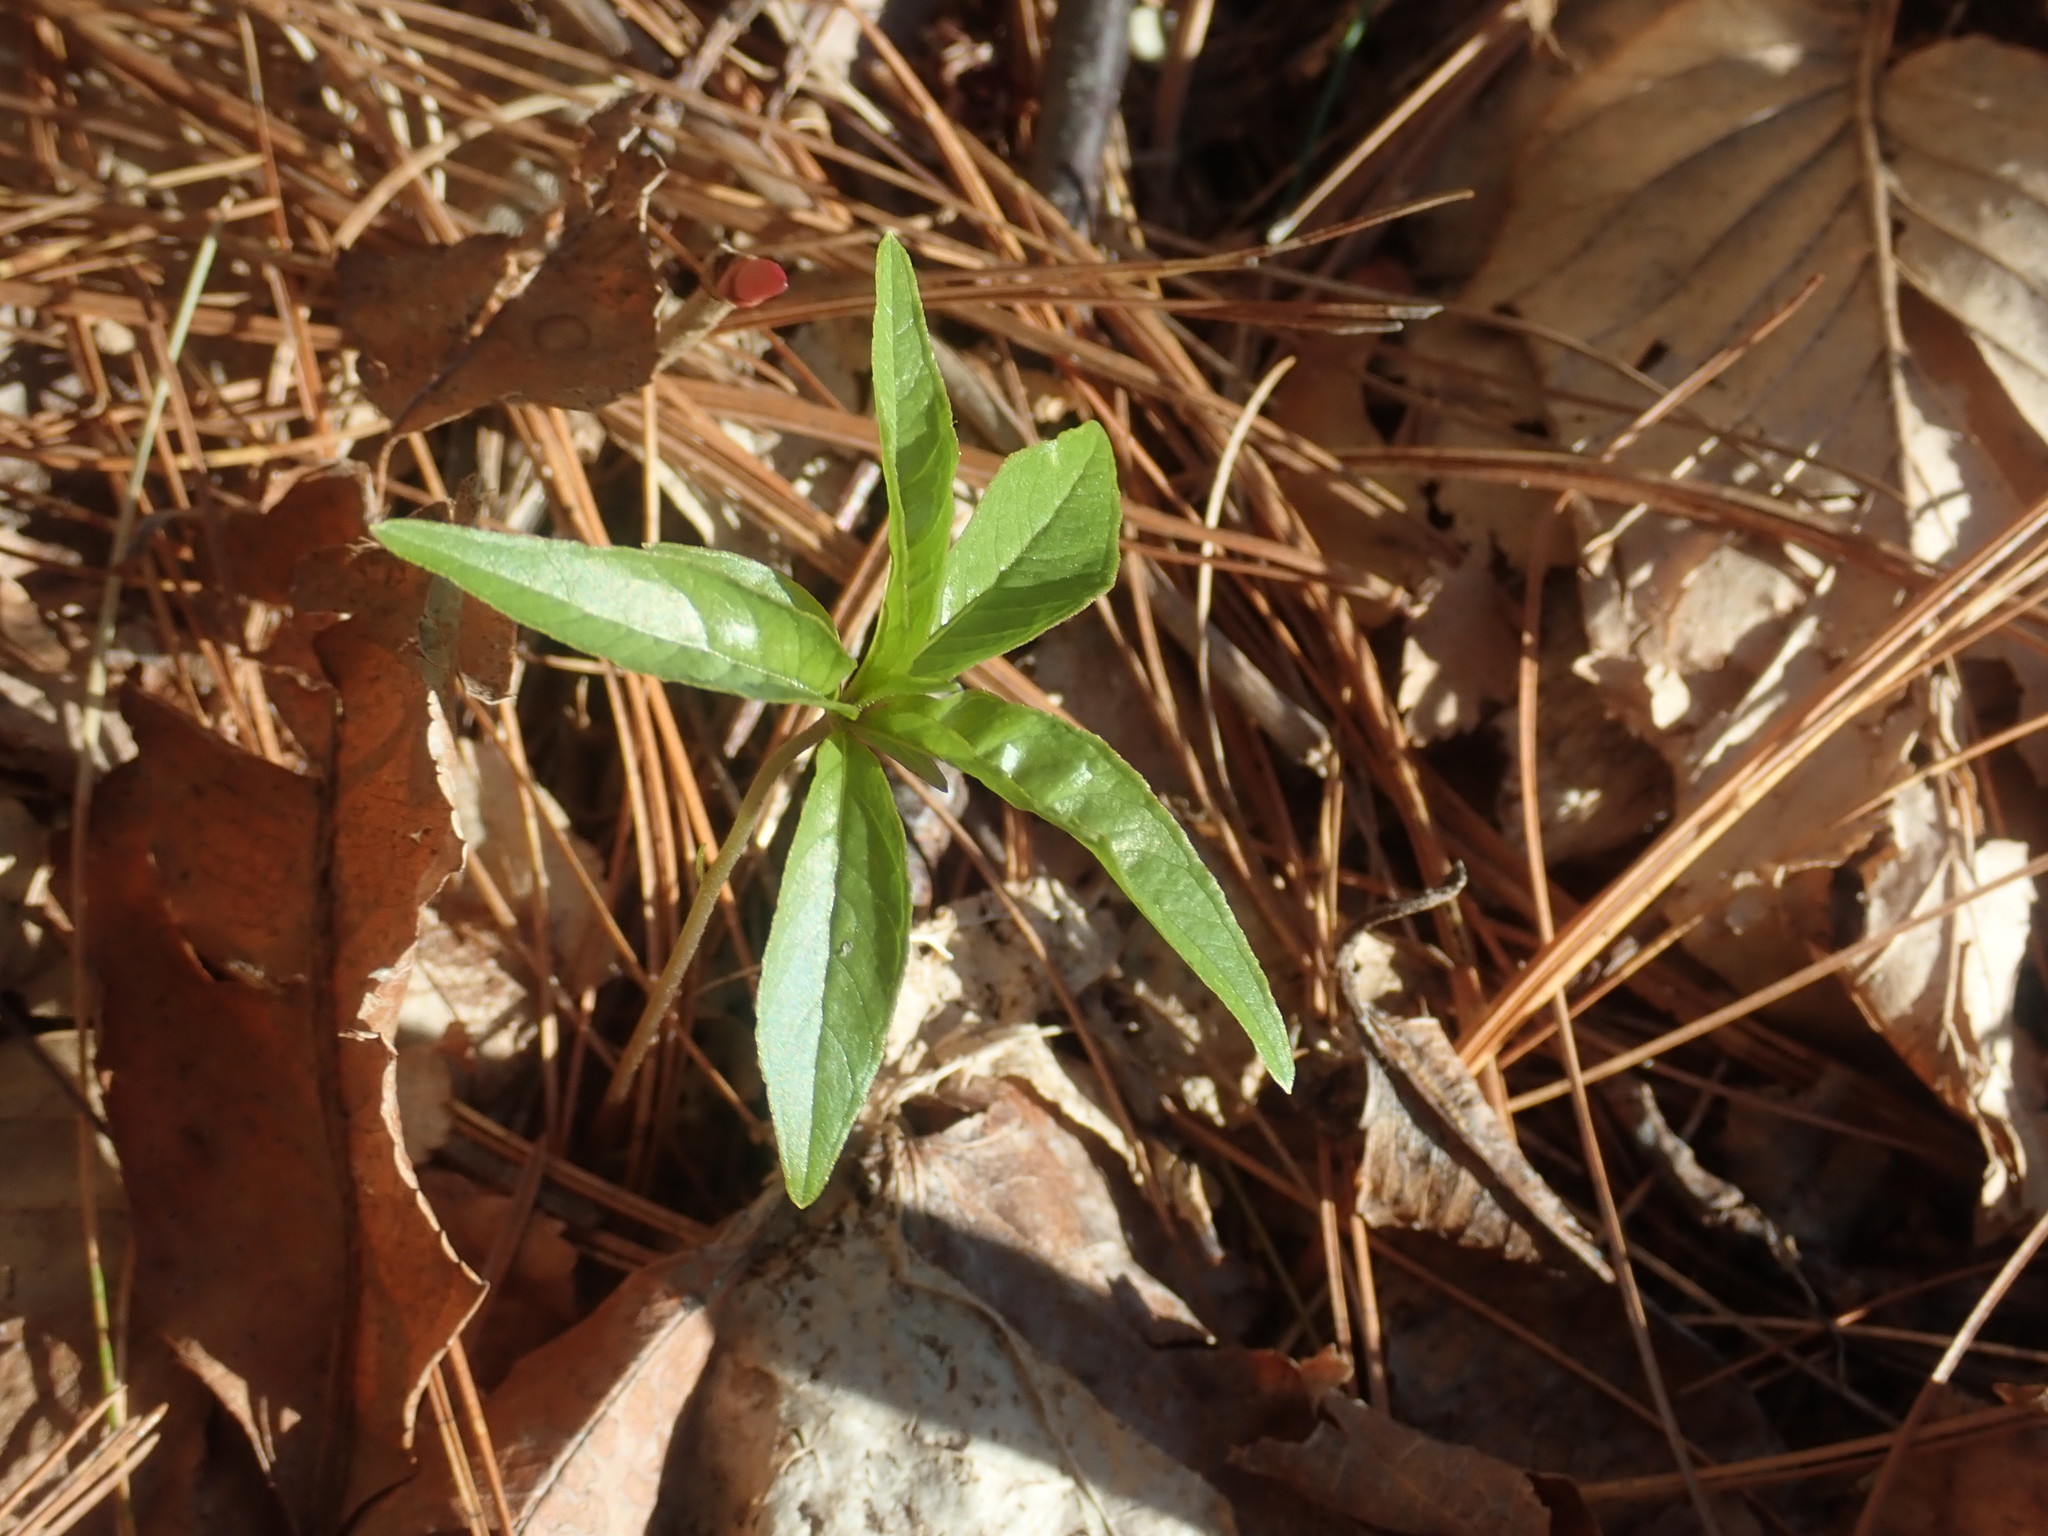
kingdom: Plantae
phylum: Tracheophyta
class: Magnoliopsida
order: Ericales
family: Primulaceae
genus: Lysimachia
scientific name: Lysimachia borealis
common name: American starflower
